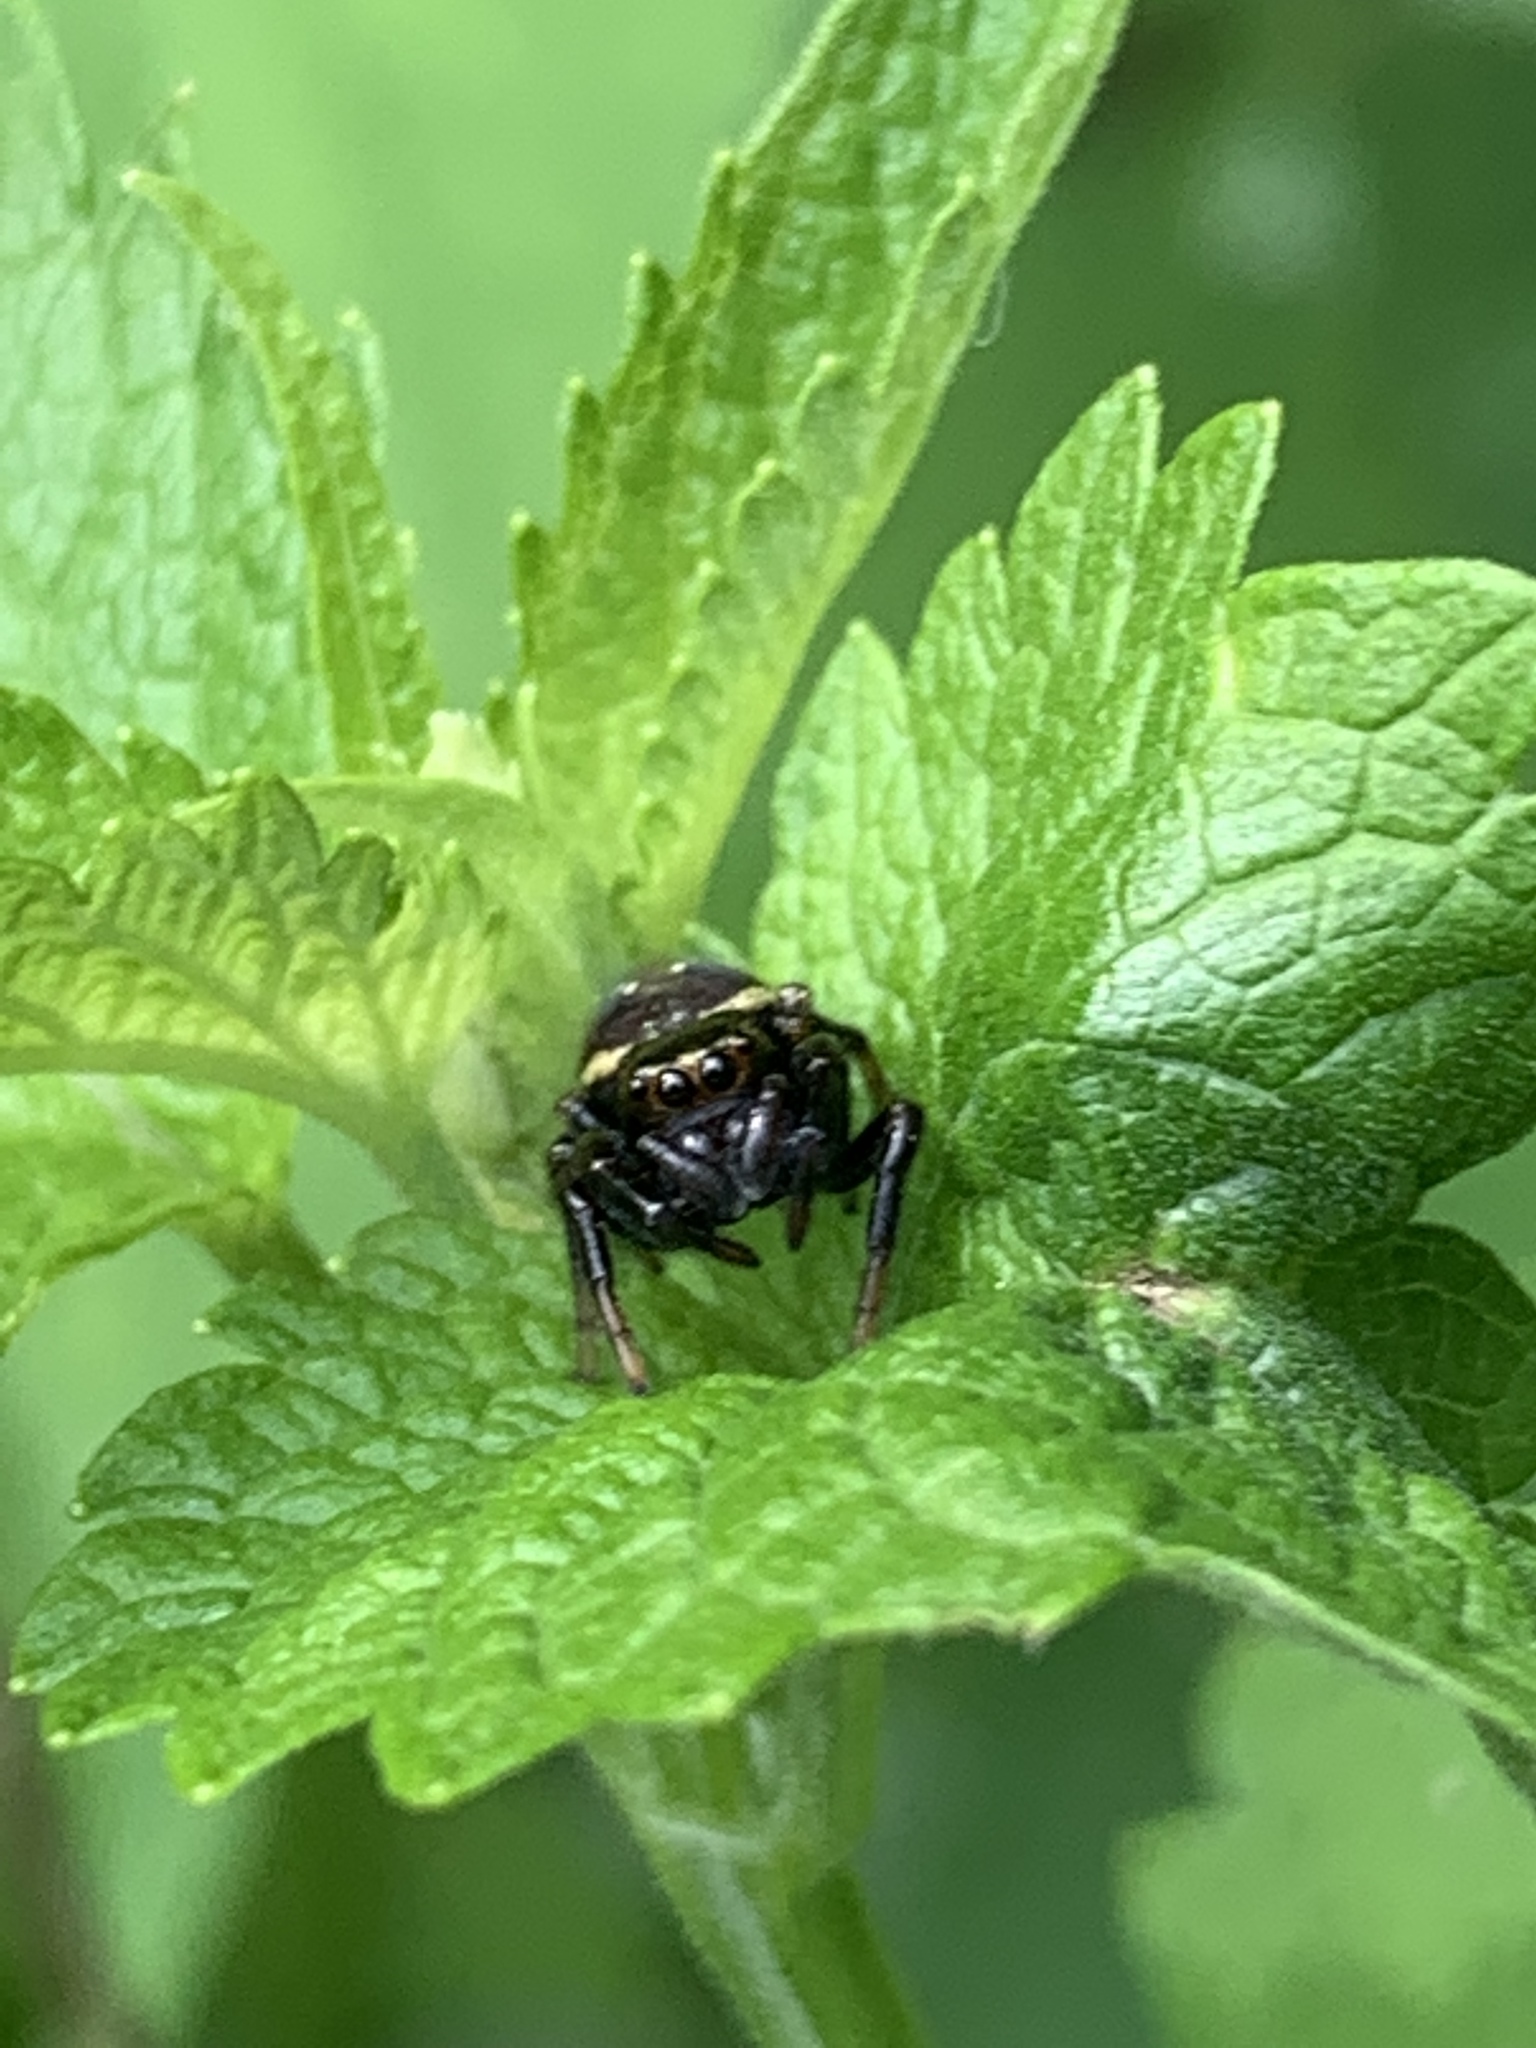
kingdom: Animalia
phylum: Arthropoda
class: Arachnida
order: Araneae
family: Salticidae
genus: Paraphidippus
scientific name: Paraphidippus aurantius
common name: Jumping spiders
